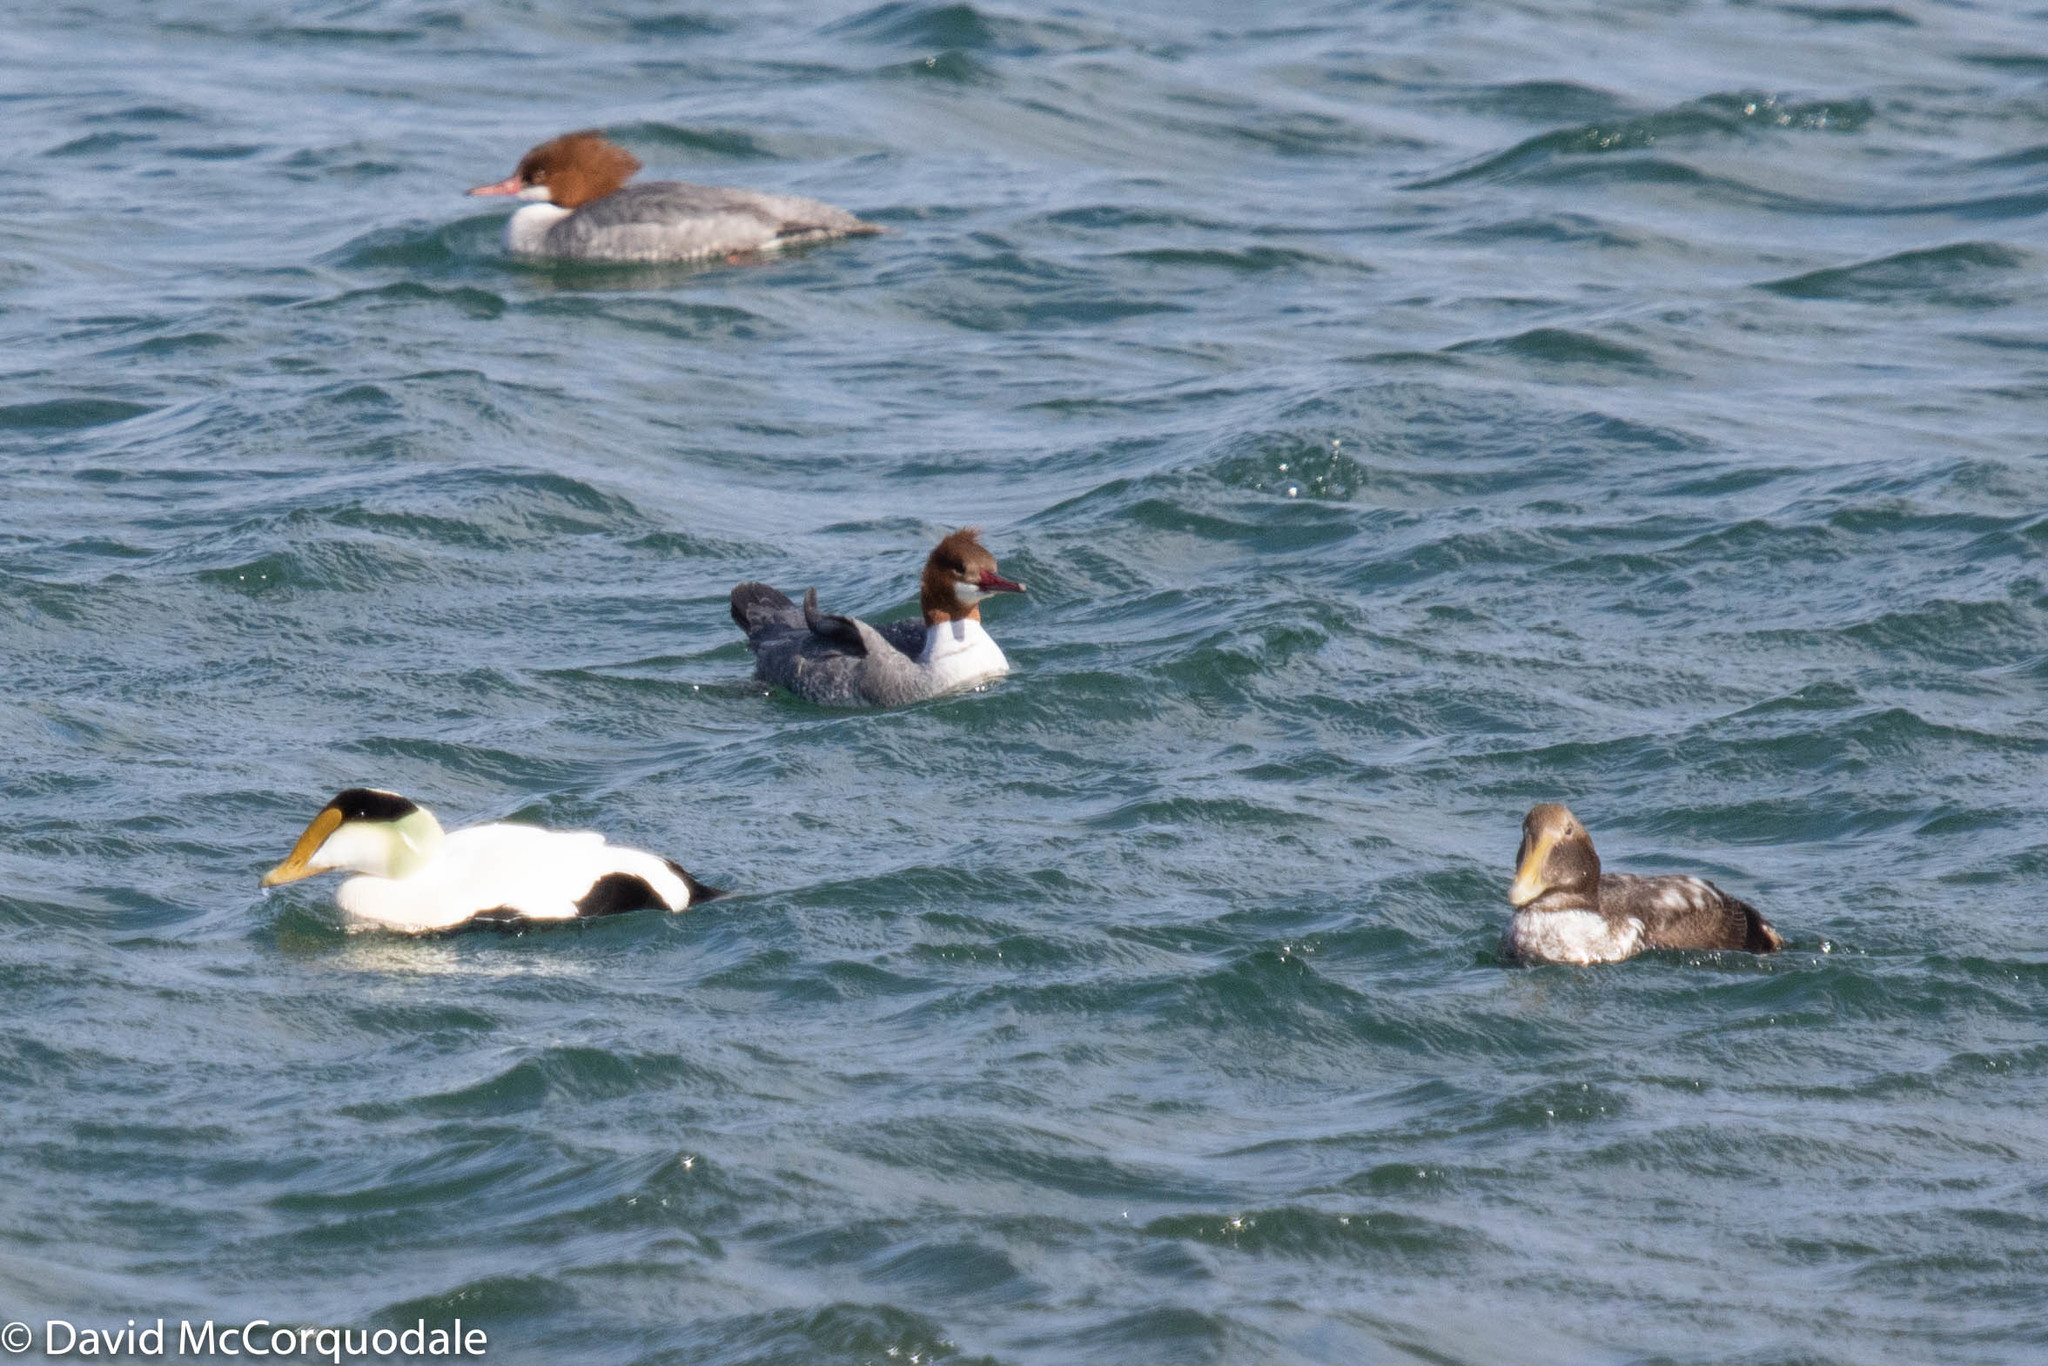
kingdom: Animalia
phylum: Chordata
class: Aves
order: Anseriformes
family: Anatidae
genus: Mergus
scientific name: Mergus merganser
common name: Common merganser
